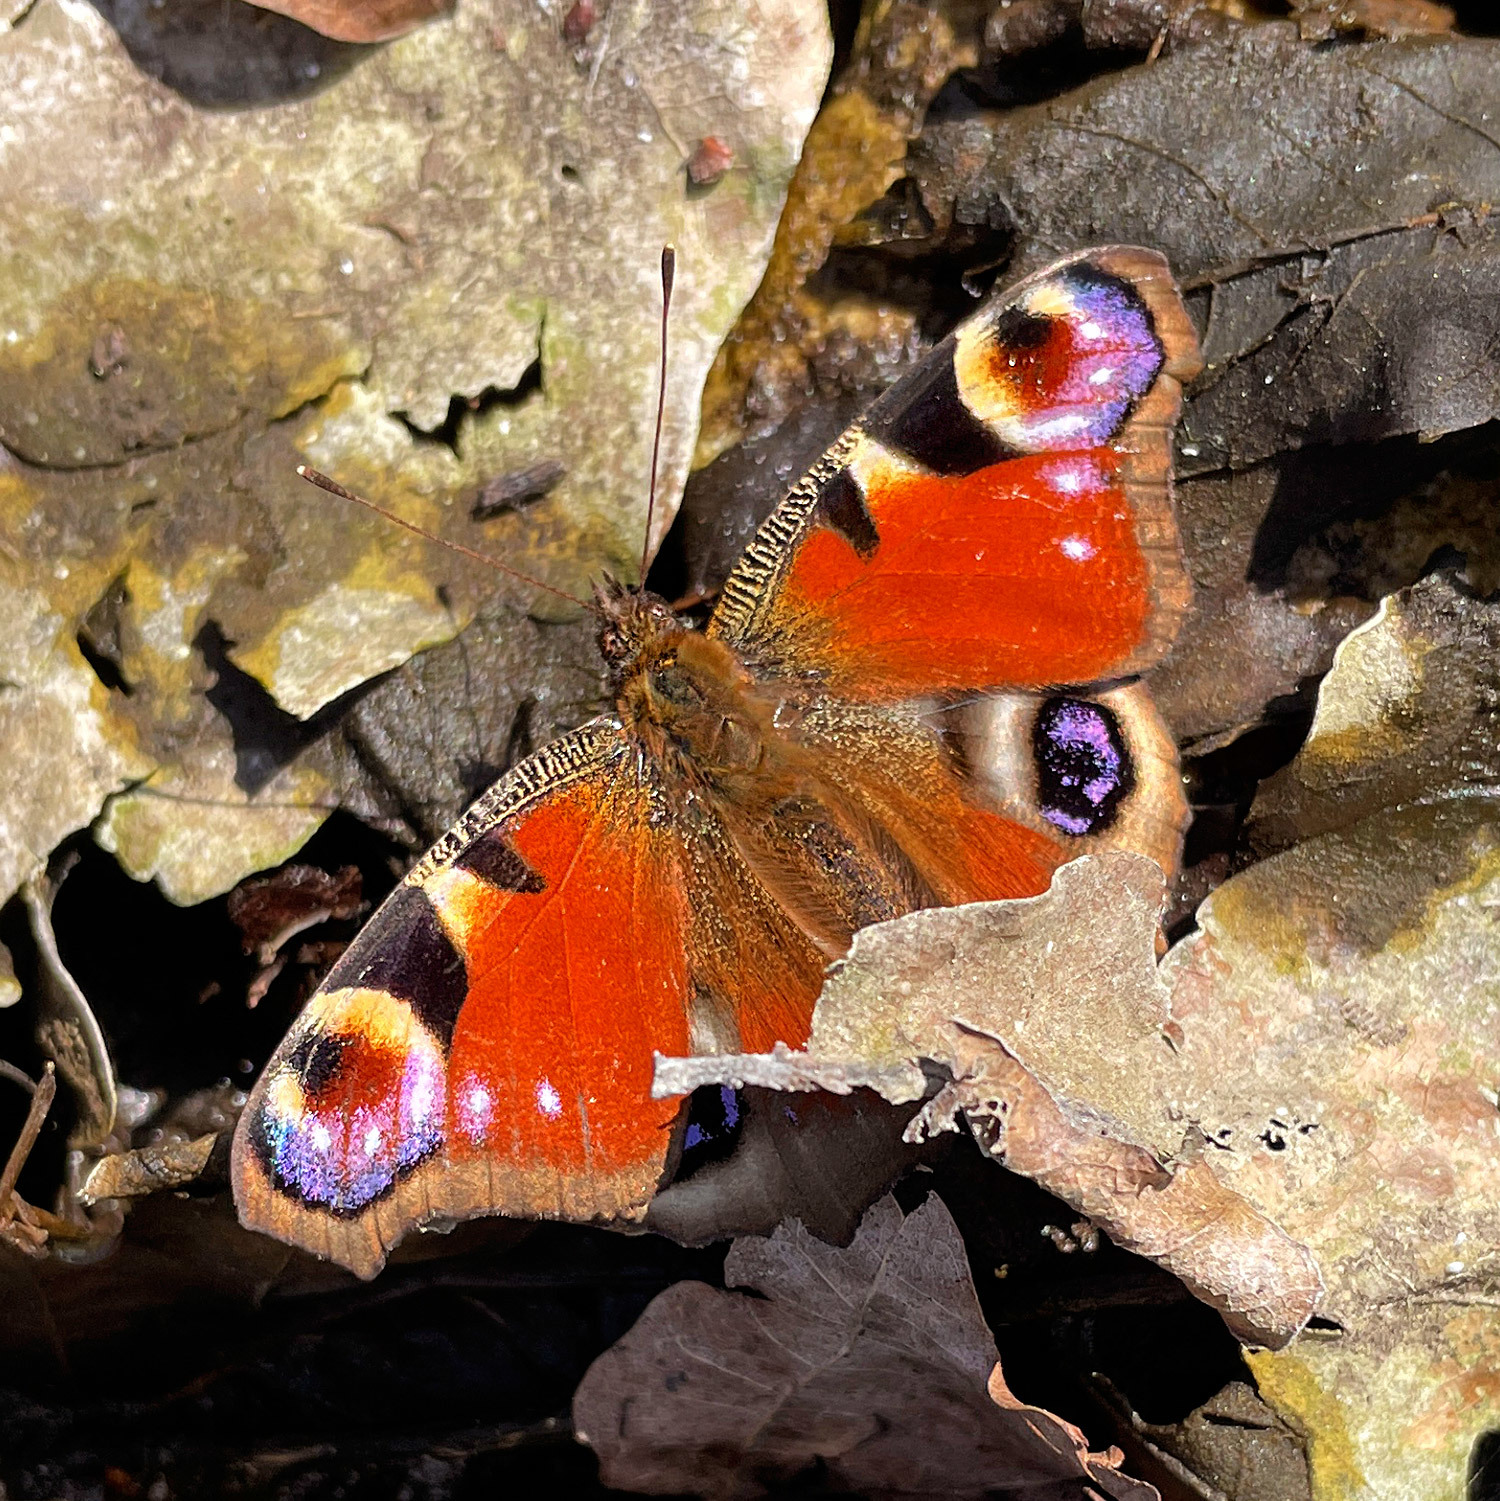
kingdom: Animalia
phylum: Arthropoda
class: Insecta
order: Lepidoptera
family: Nymphalidae
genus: Aglais
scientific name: Aglais io
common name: Peacock
